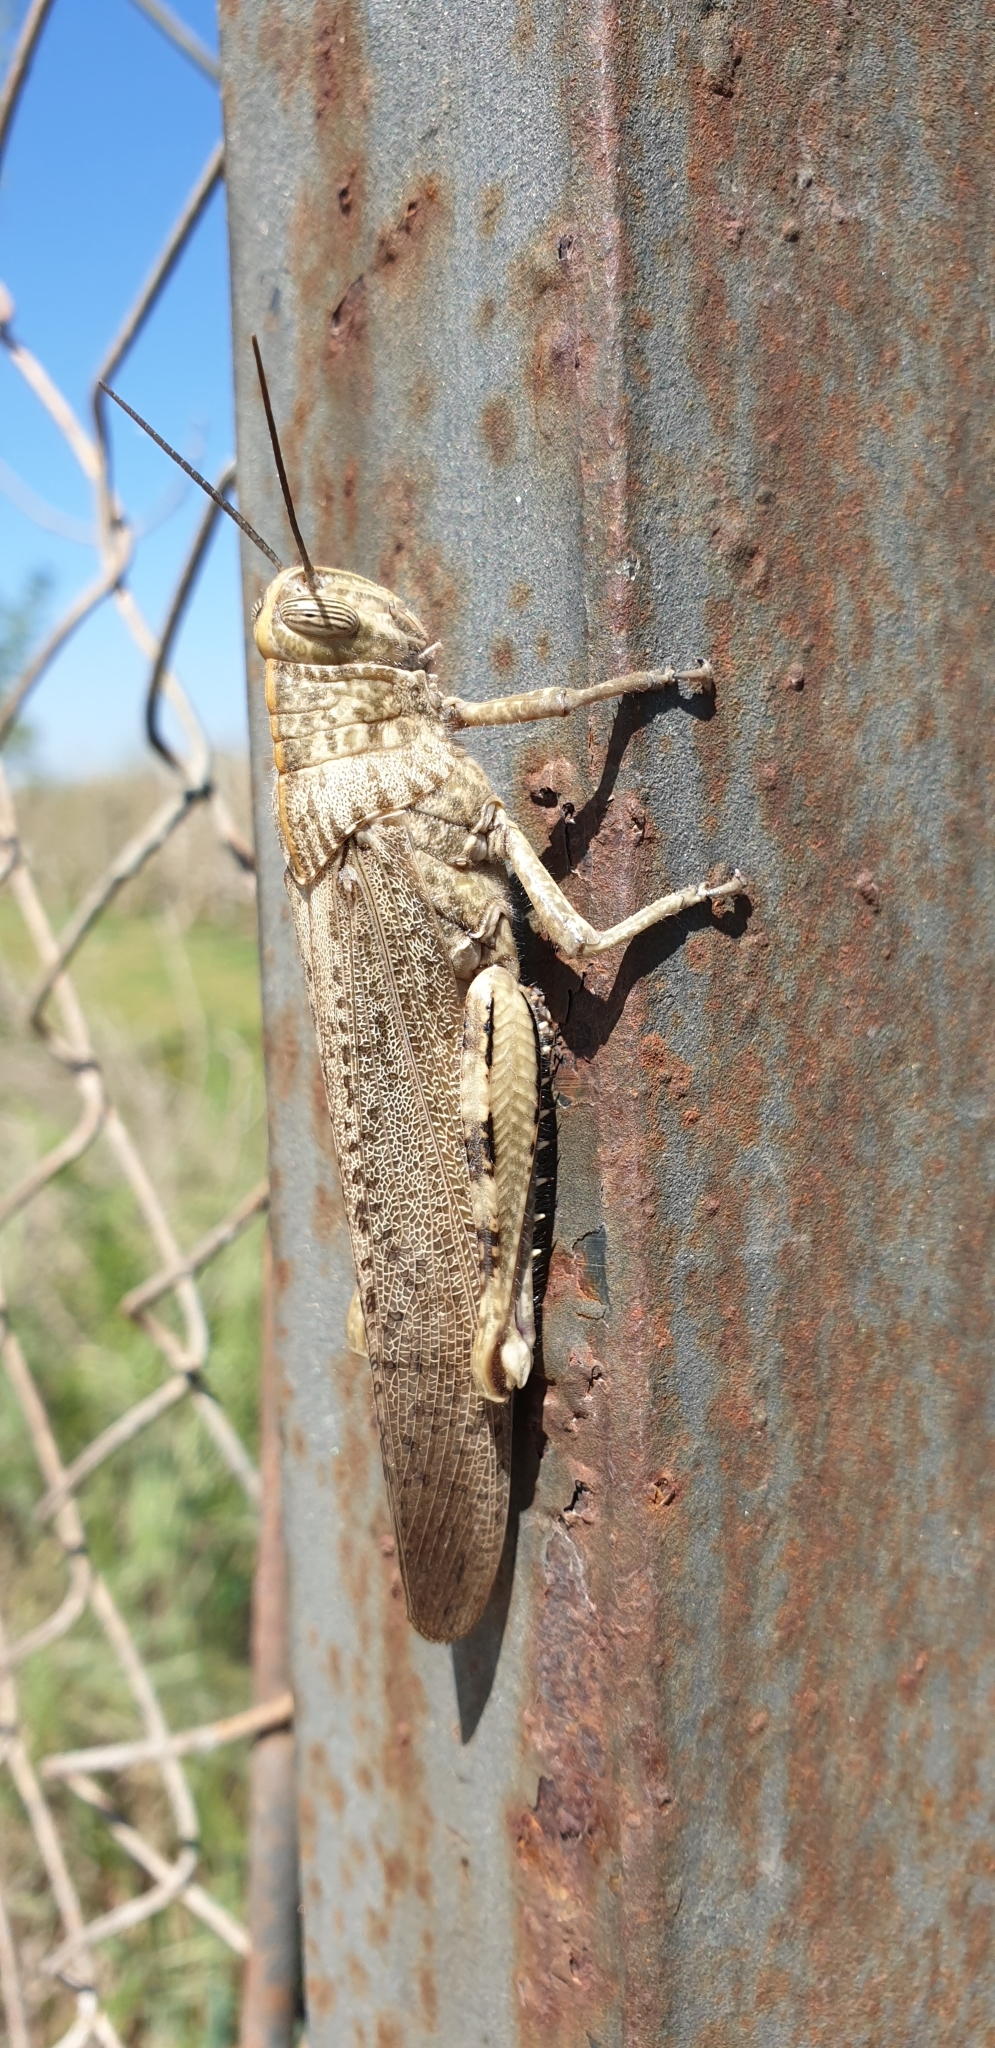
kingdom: Animalia
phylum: Arthropoda
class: Insecta
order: Orthoptera
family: Acrididae
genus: Anacridium
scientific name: Anacridium aegyptium
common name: Egyptian grasshopper
